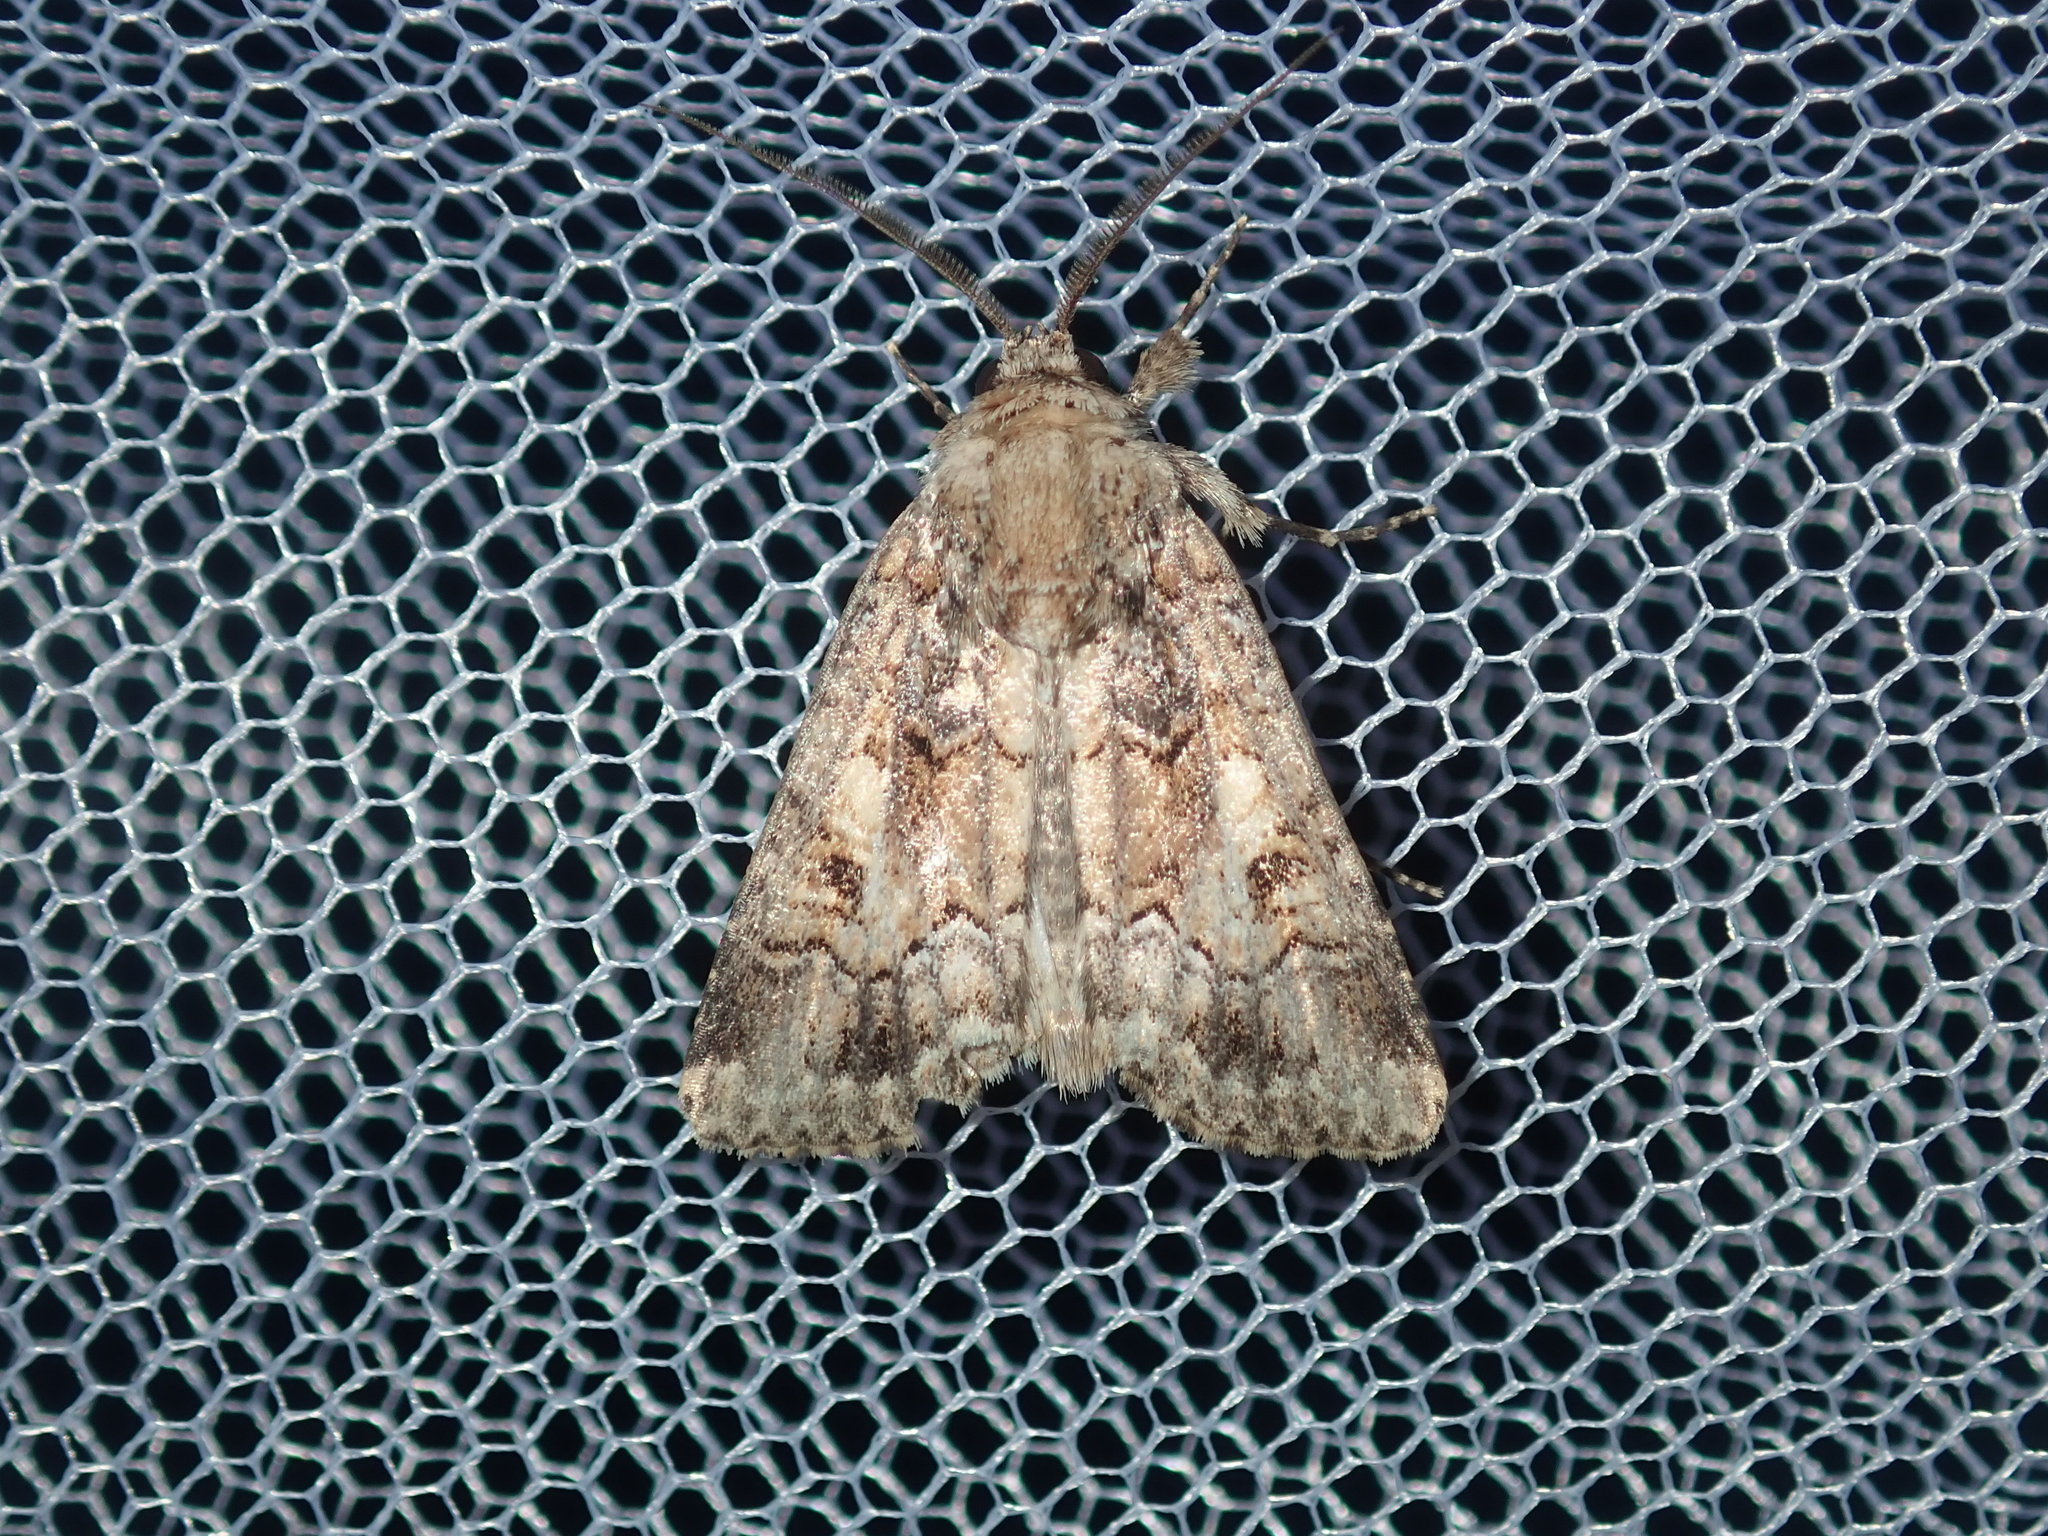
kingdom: Animalia
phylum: Arthropoda
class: Insecta
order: Lepidoptera
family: Noctuidae
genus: Spodoptera
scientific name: Spodoptera umbraculata
